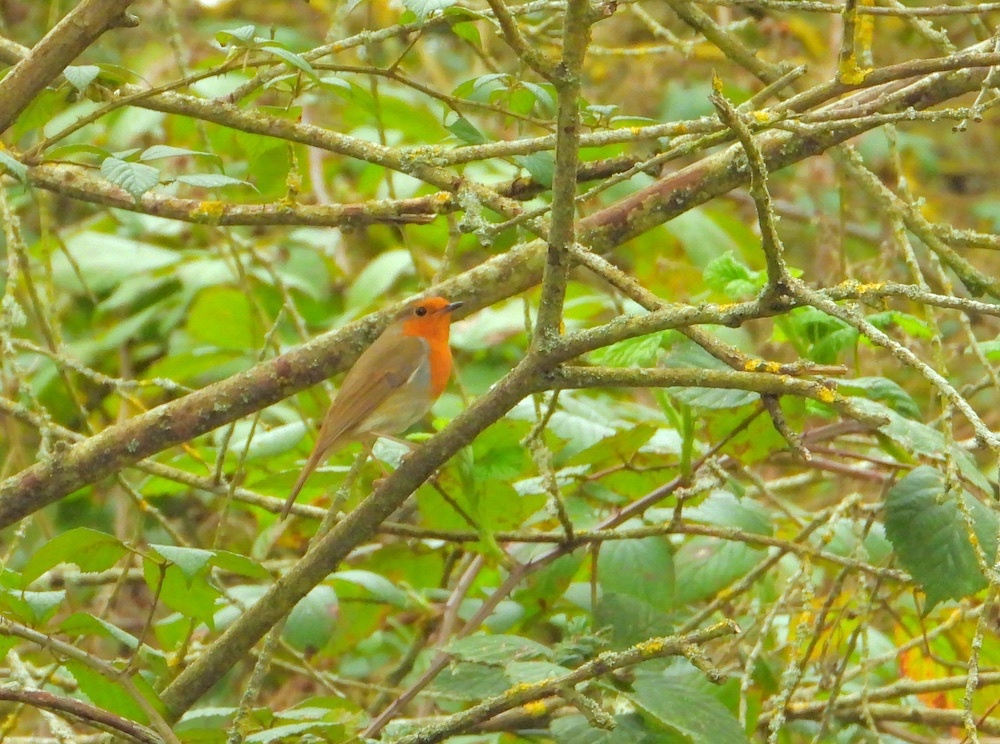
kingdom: Animalia
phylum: Chordata
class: Aves
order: Passeriformes
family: Muscicapidae
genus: Erithacus
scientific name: Erithacus rubecula
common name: European robin
